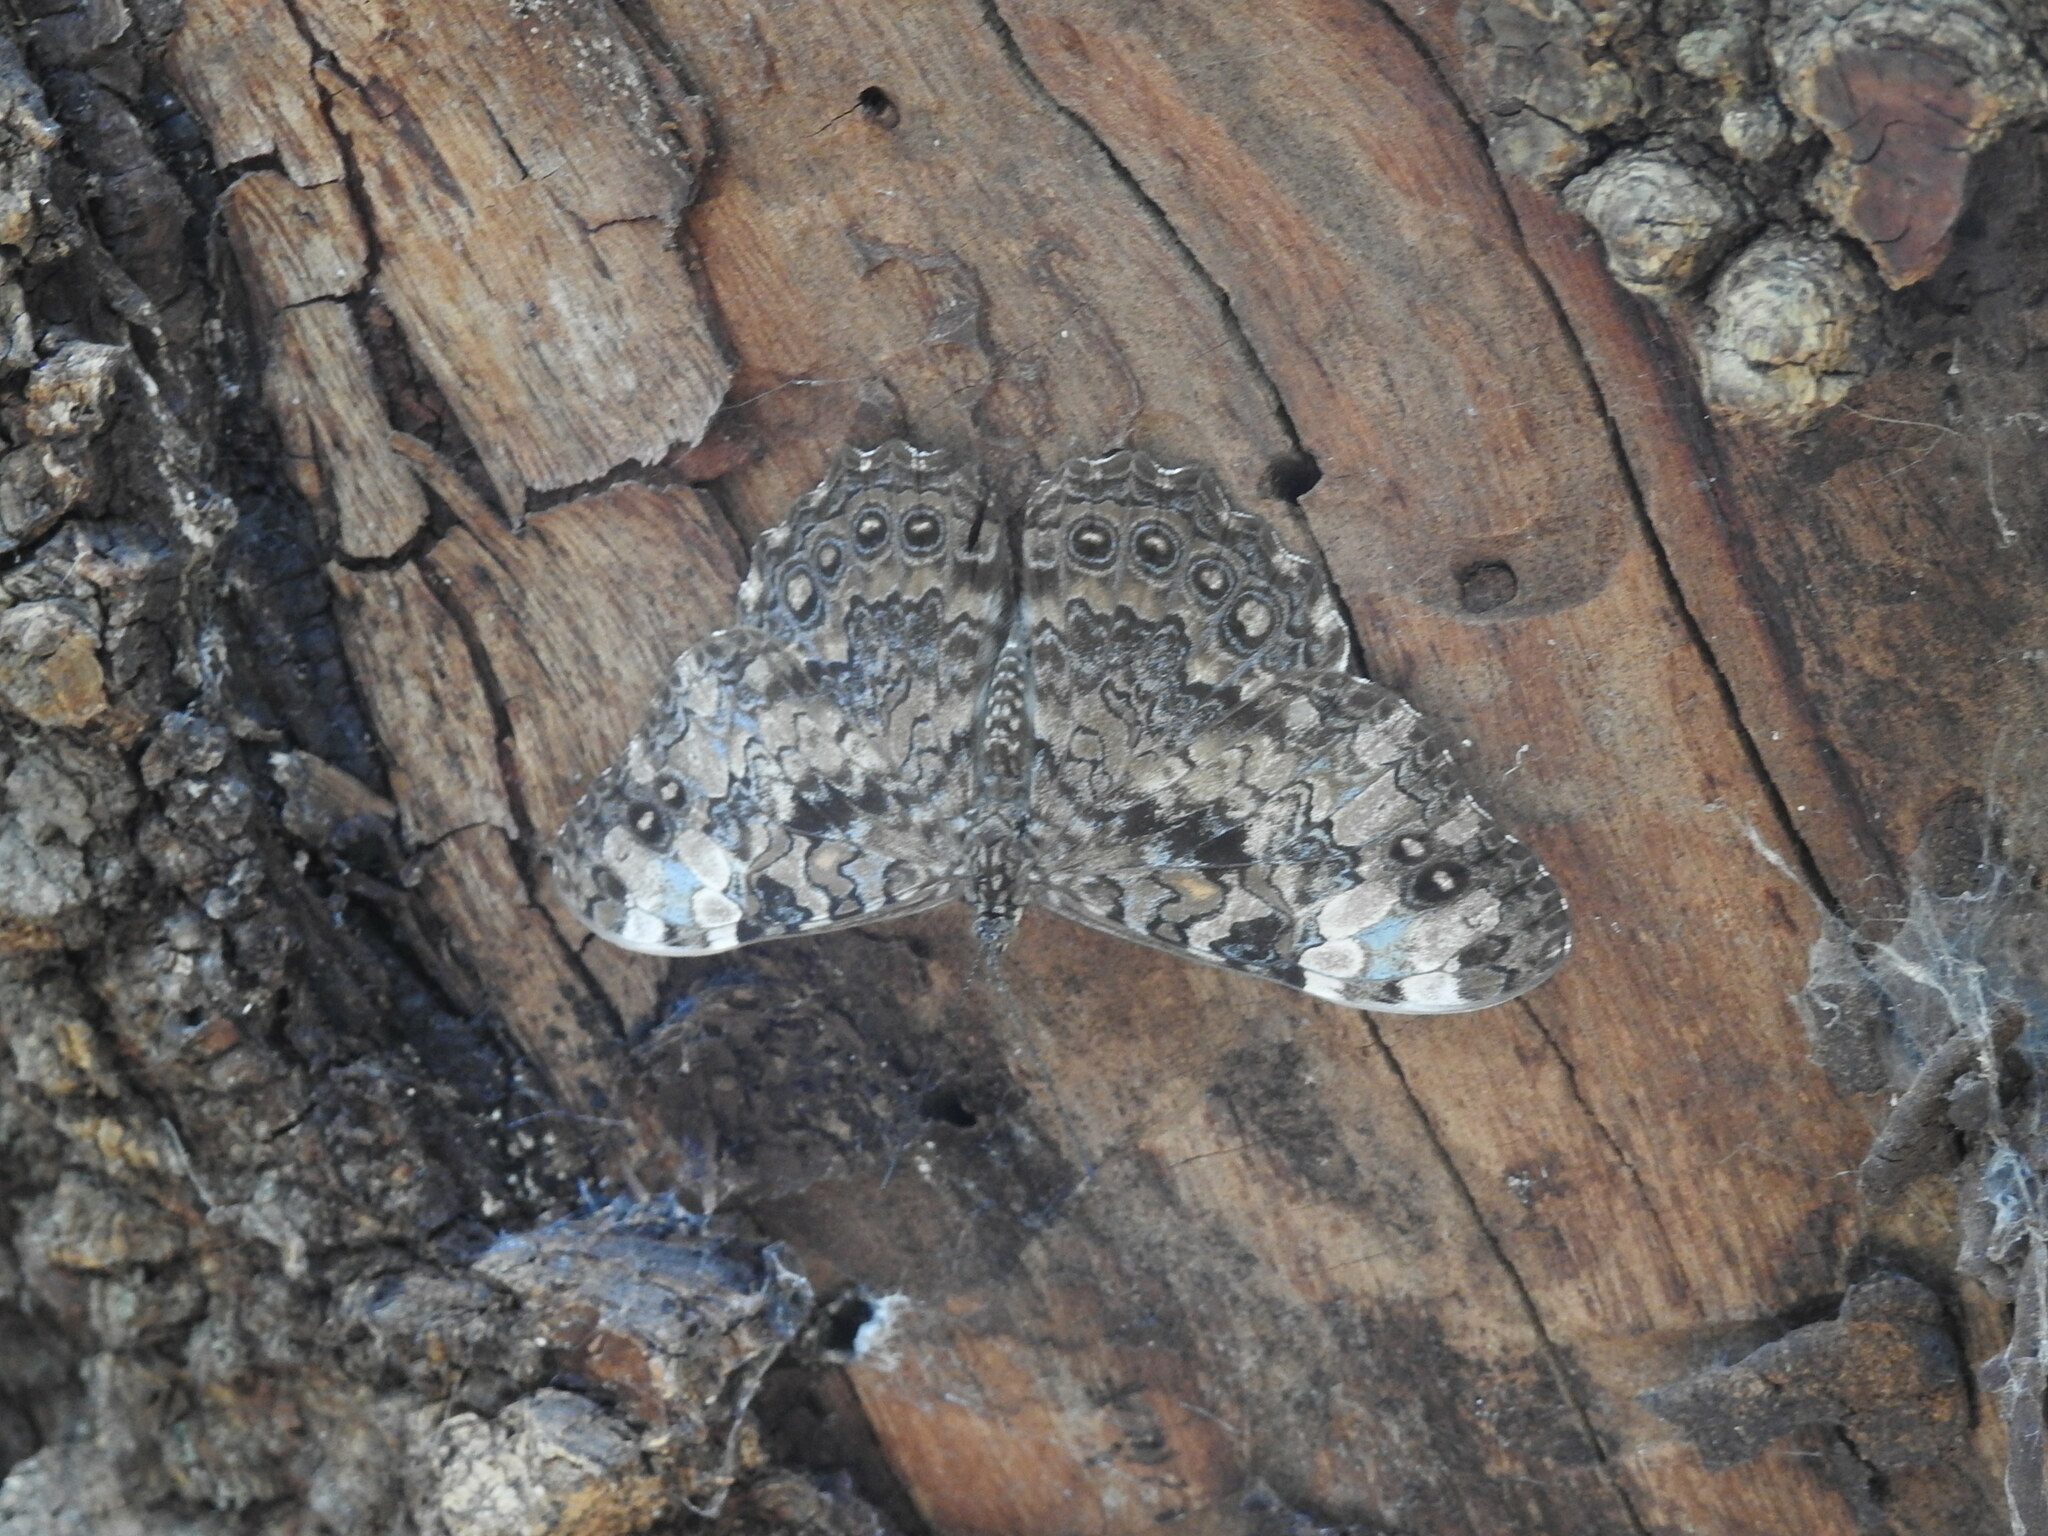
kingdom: Animalia
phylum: Arthropoda
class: Insecta
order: Lepidoptera
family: Nymphalidae
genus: Hamadryas
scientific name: Hamadryas epinome
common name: Epinome cracker
